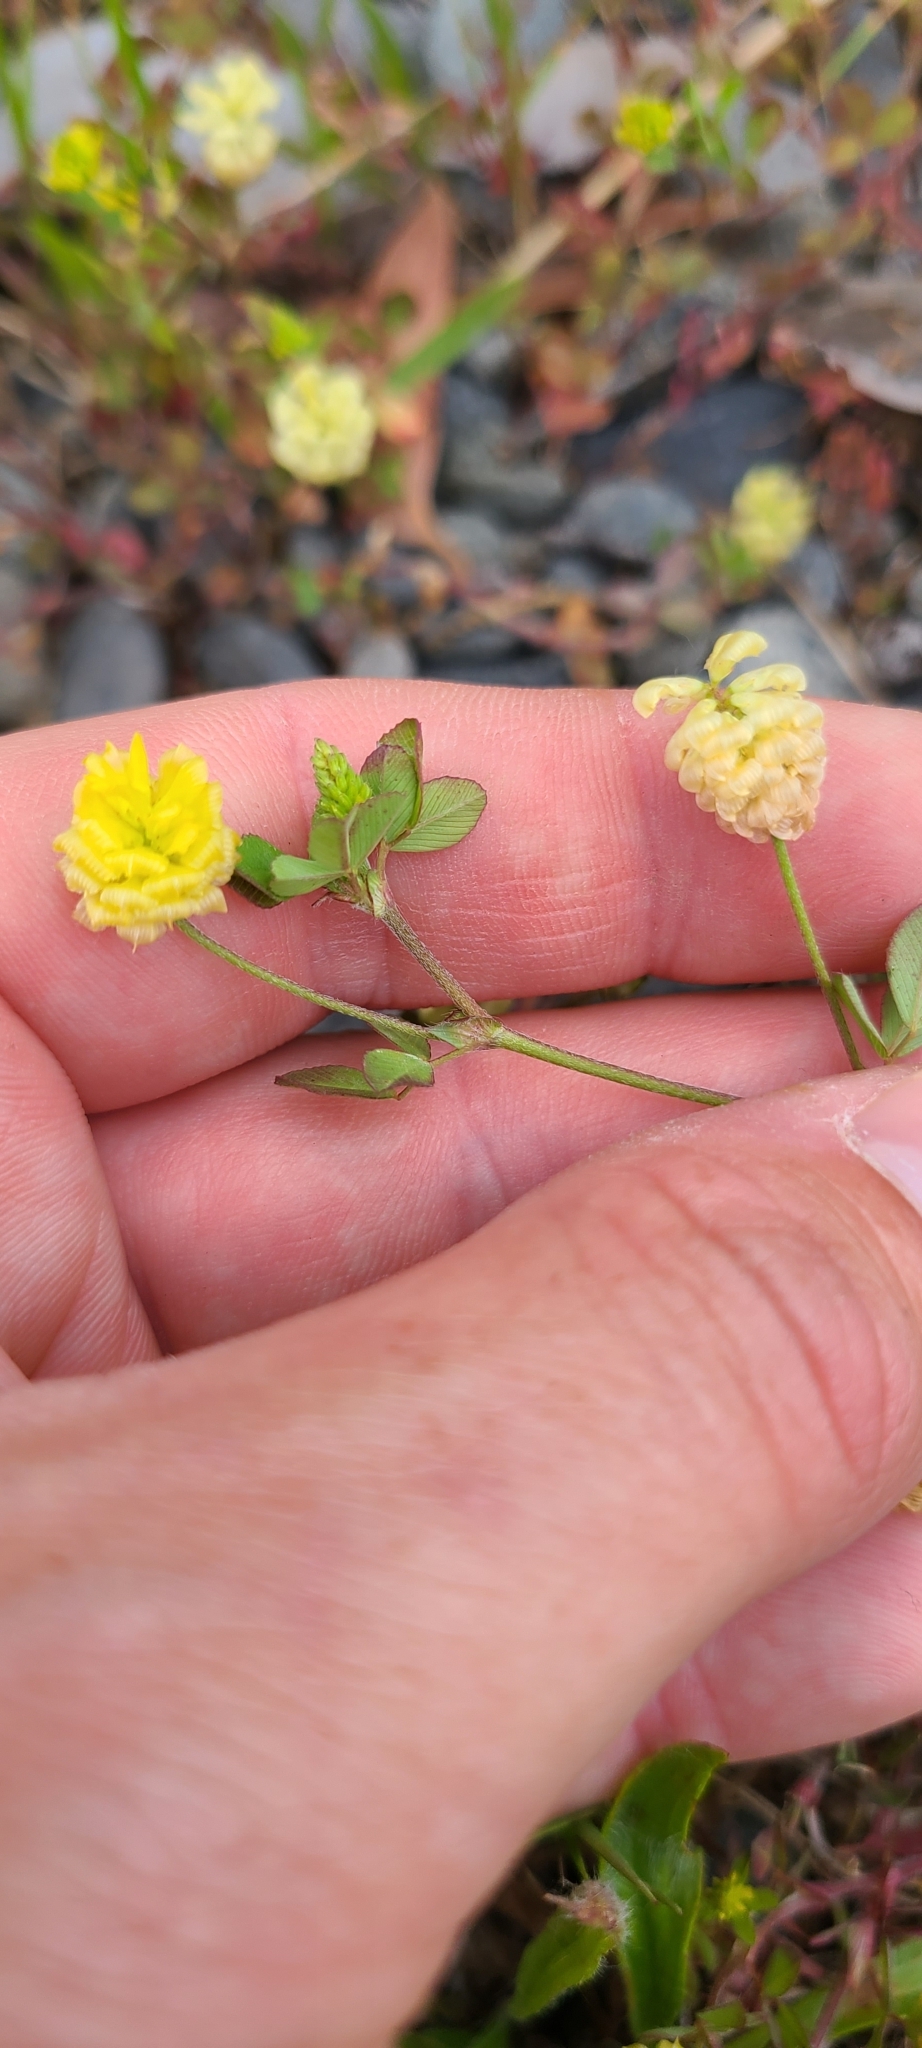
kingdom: Plantae
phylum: Tracheophyta
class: Magnoliopsida
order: Fabales
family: Fabaceae
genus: Trifolium
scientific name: Trifolium campestre
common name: Field clover
